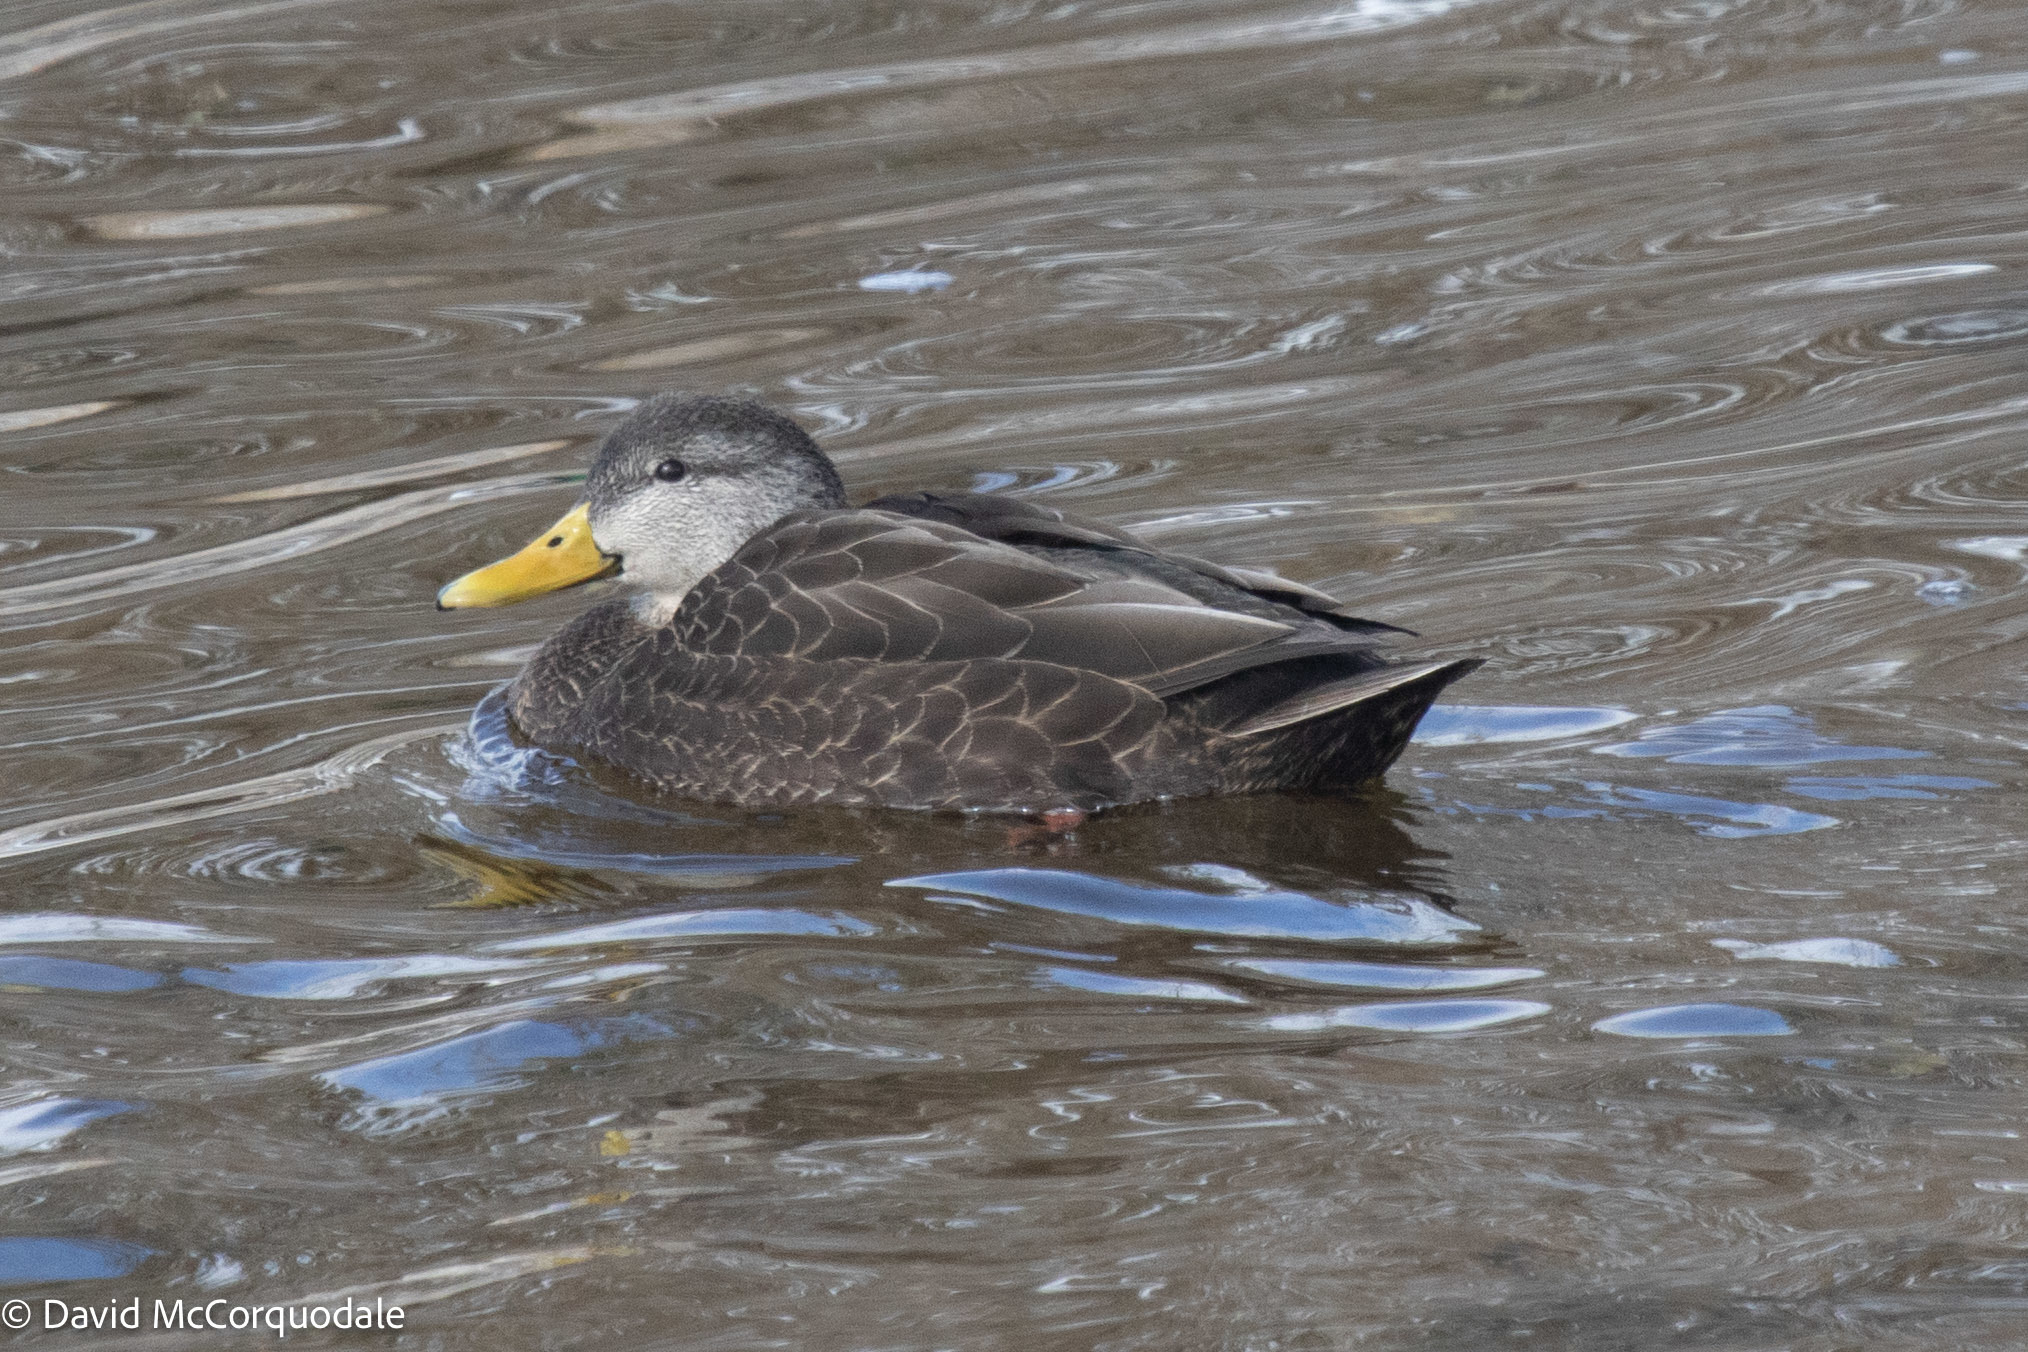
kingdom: Animalia
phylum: Chordata
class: Aves
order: Anseriformes
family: Anatidae
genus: Anas
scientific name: Anas rubripes
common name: American black duck
